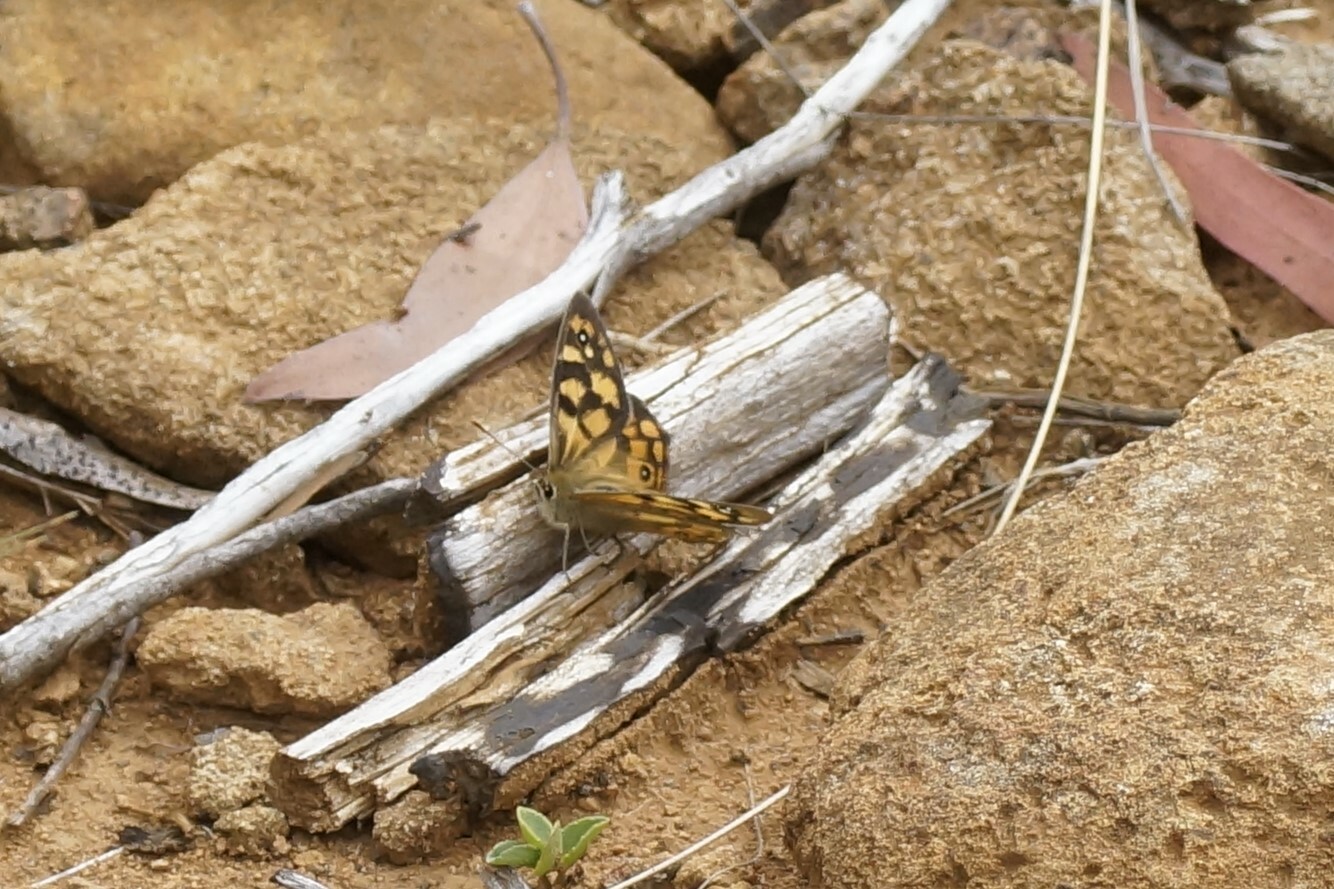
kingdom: Animalia
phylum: Arthropoda
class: Insecta
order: Lepidoptera
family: Nymphalidae
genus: Heteronympha
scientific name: Heteronympha penelope
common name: Shouldered brown
